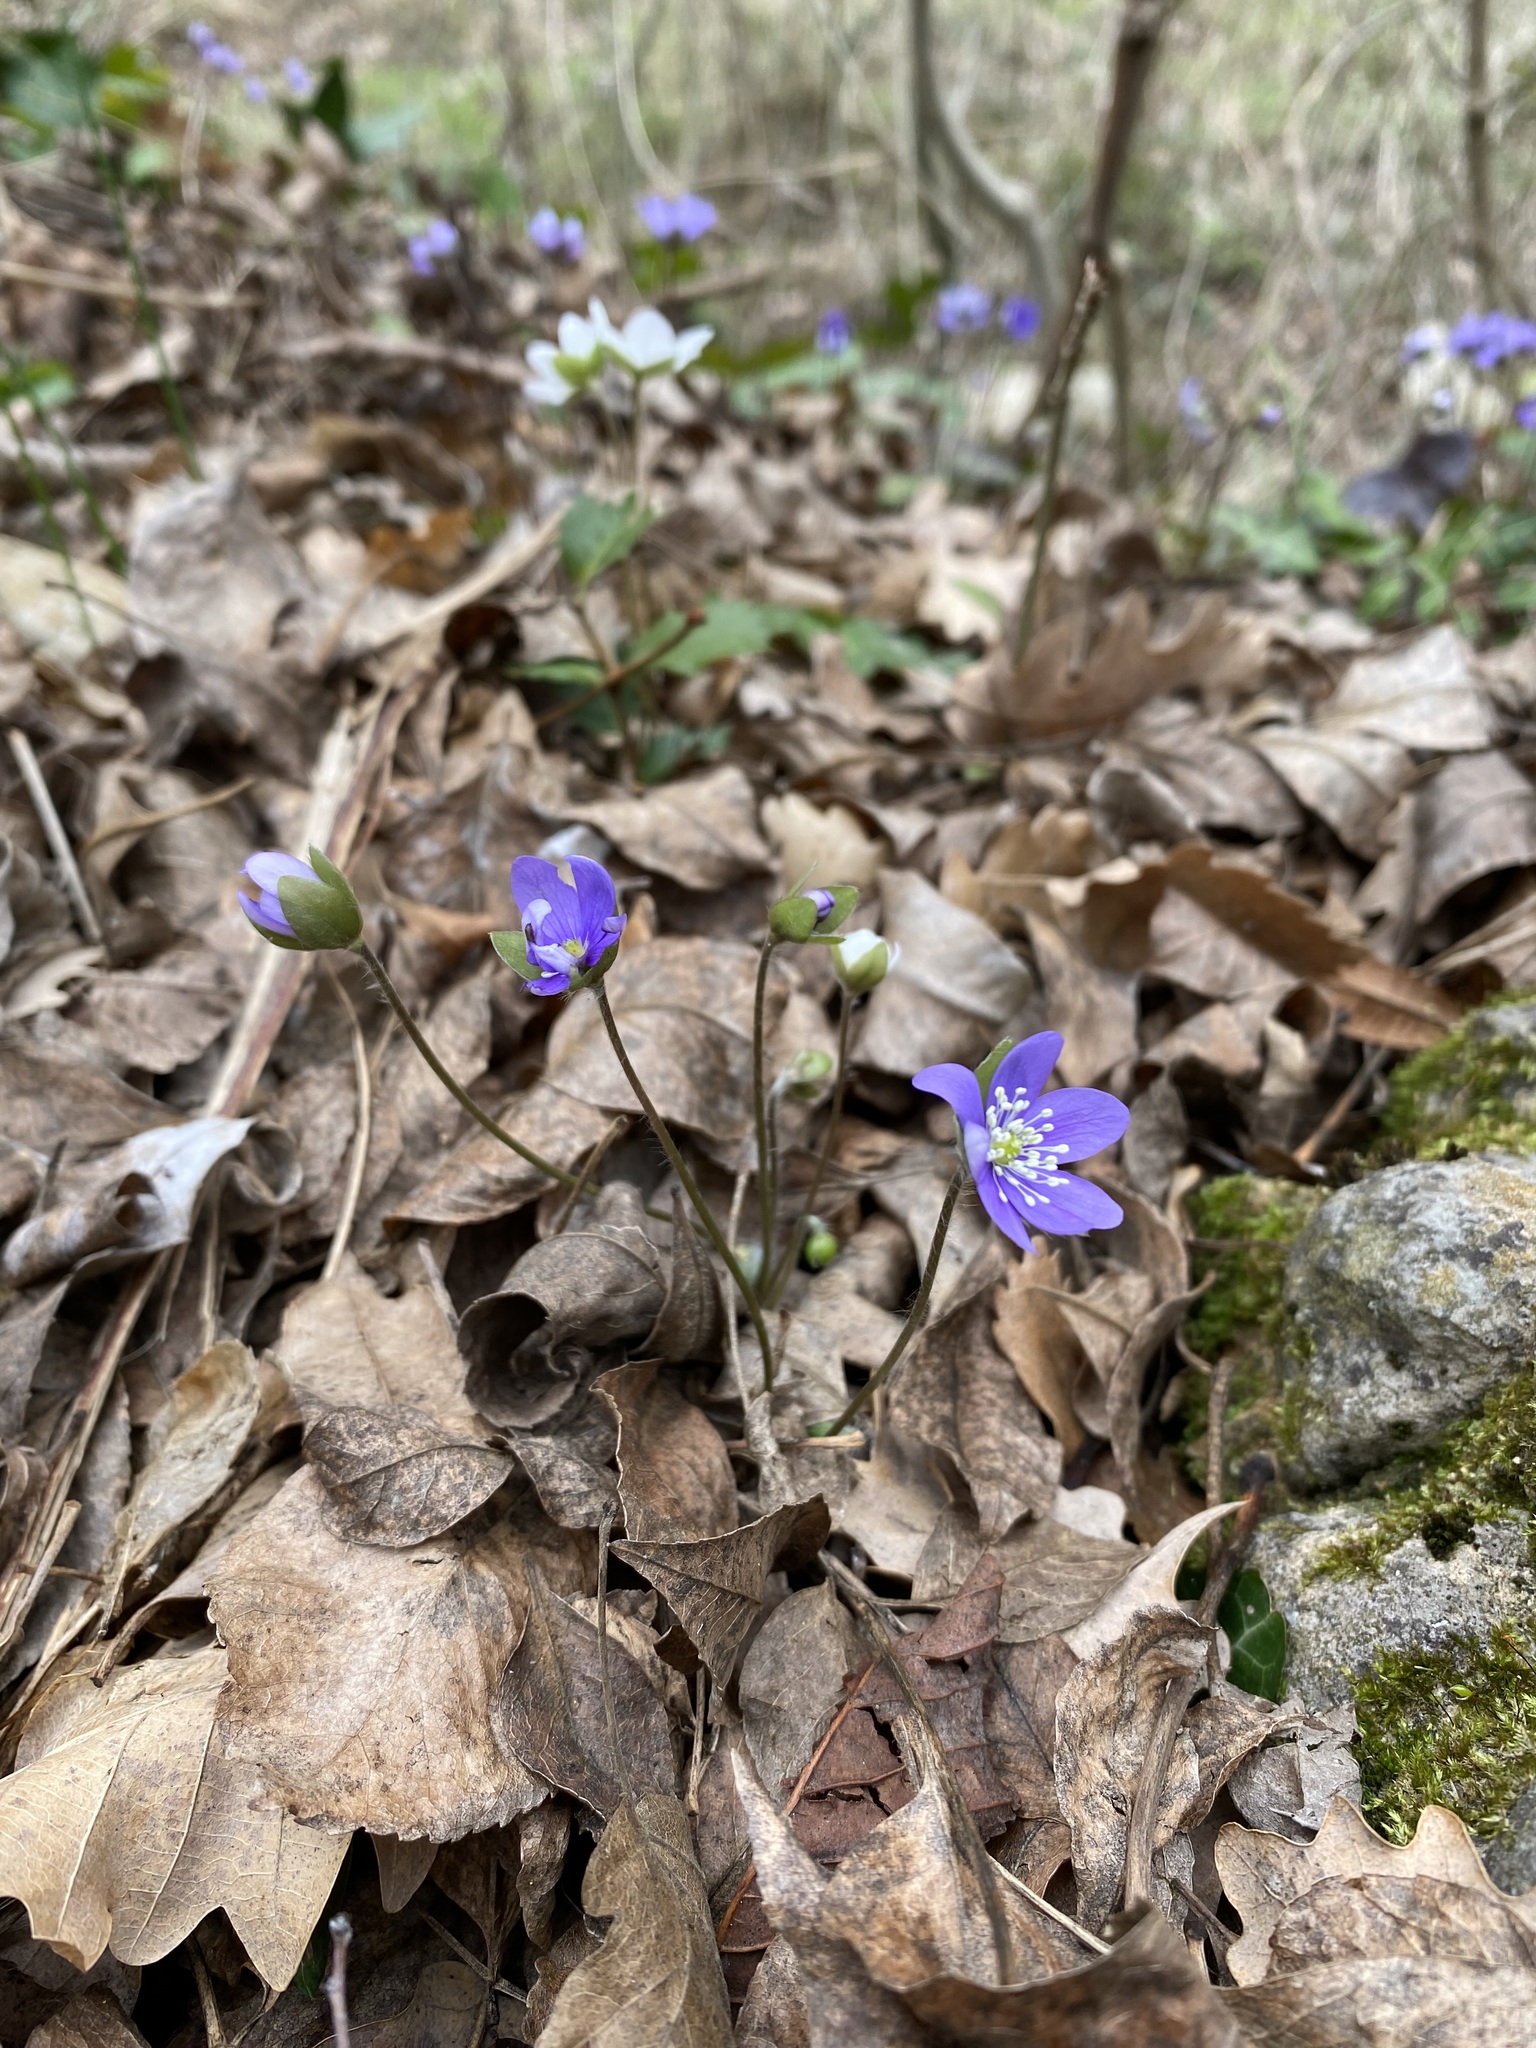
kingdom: Plantae
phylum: Tracheophyta
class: Magnoliopsida
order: Ranunculales
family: Ranunculaceae
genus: Hepatica
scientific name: Hepatica nobilis
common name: Liverleaf
